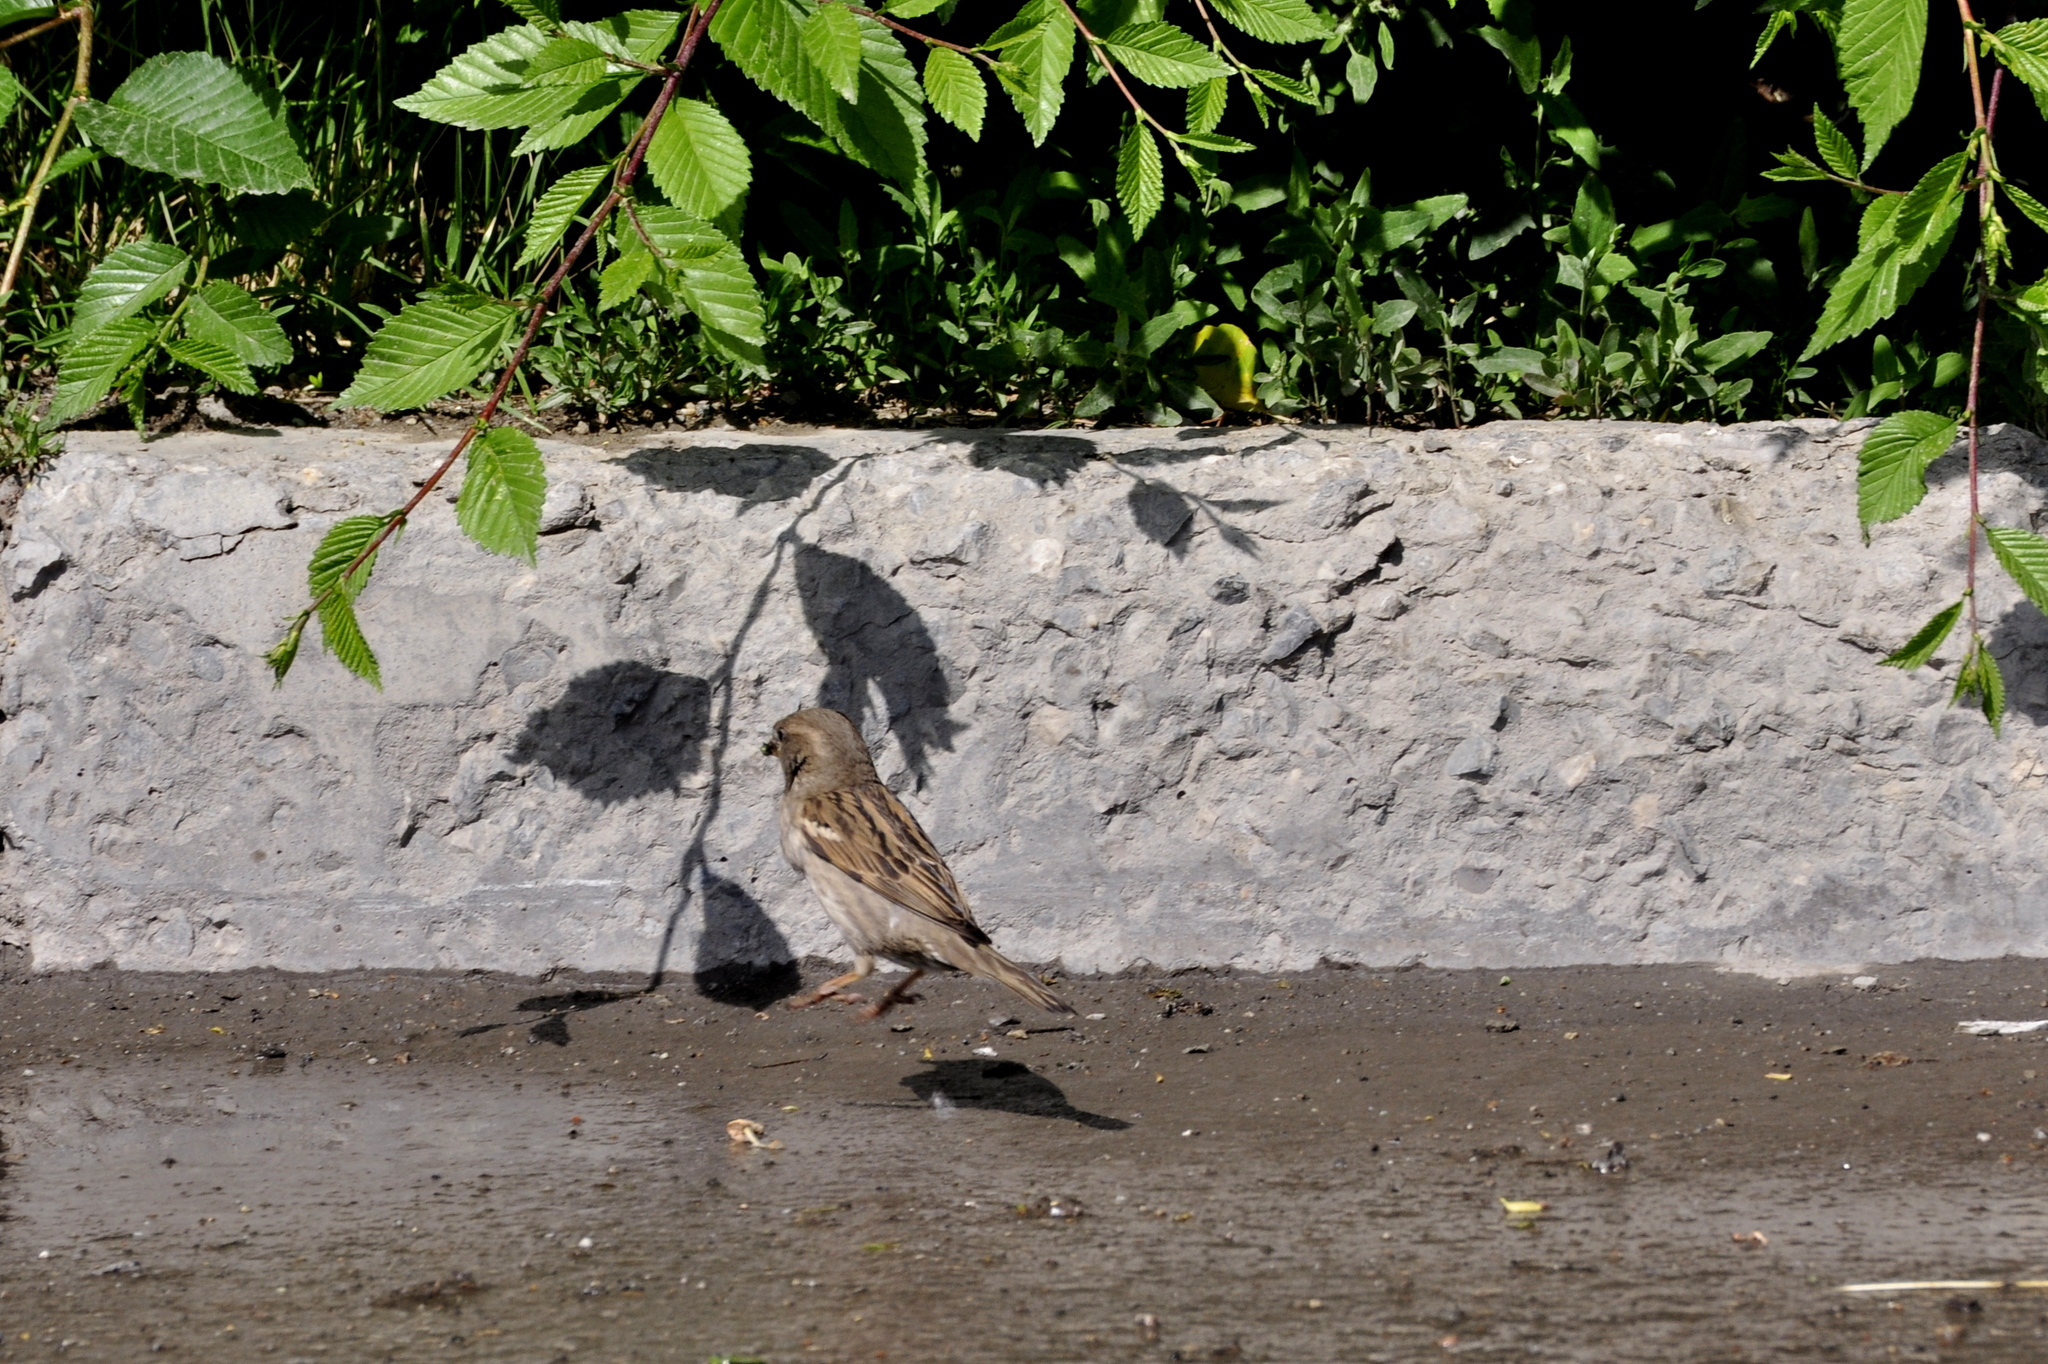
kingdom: Animalia
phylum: Chordata
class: Aves
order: Passeriformes
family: Passeridae
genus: Passer
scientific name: Passer domesticus
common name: House sparrow
